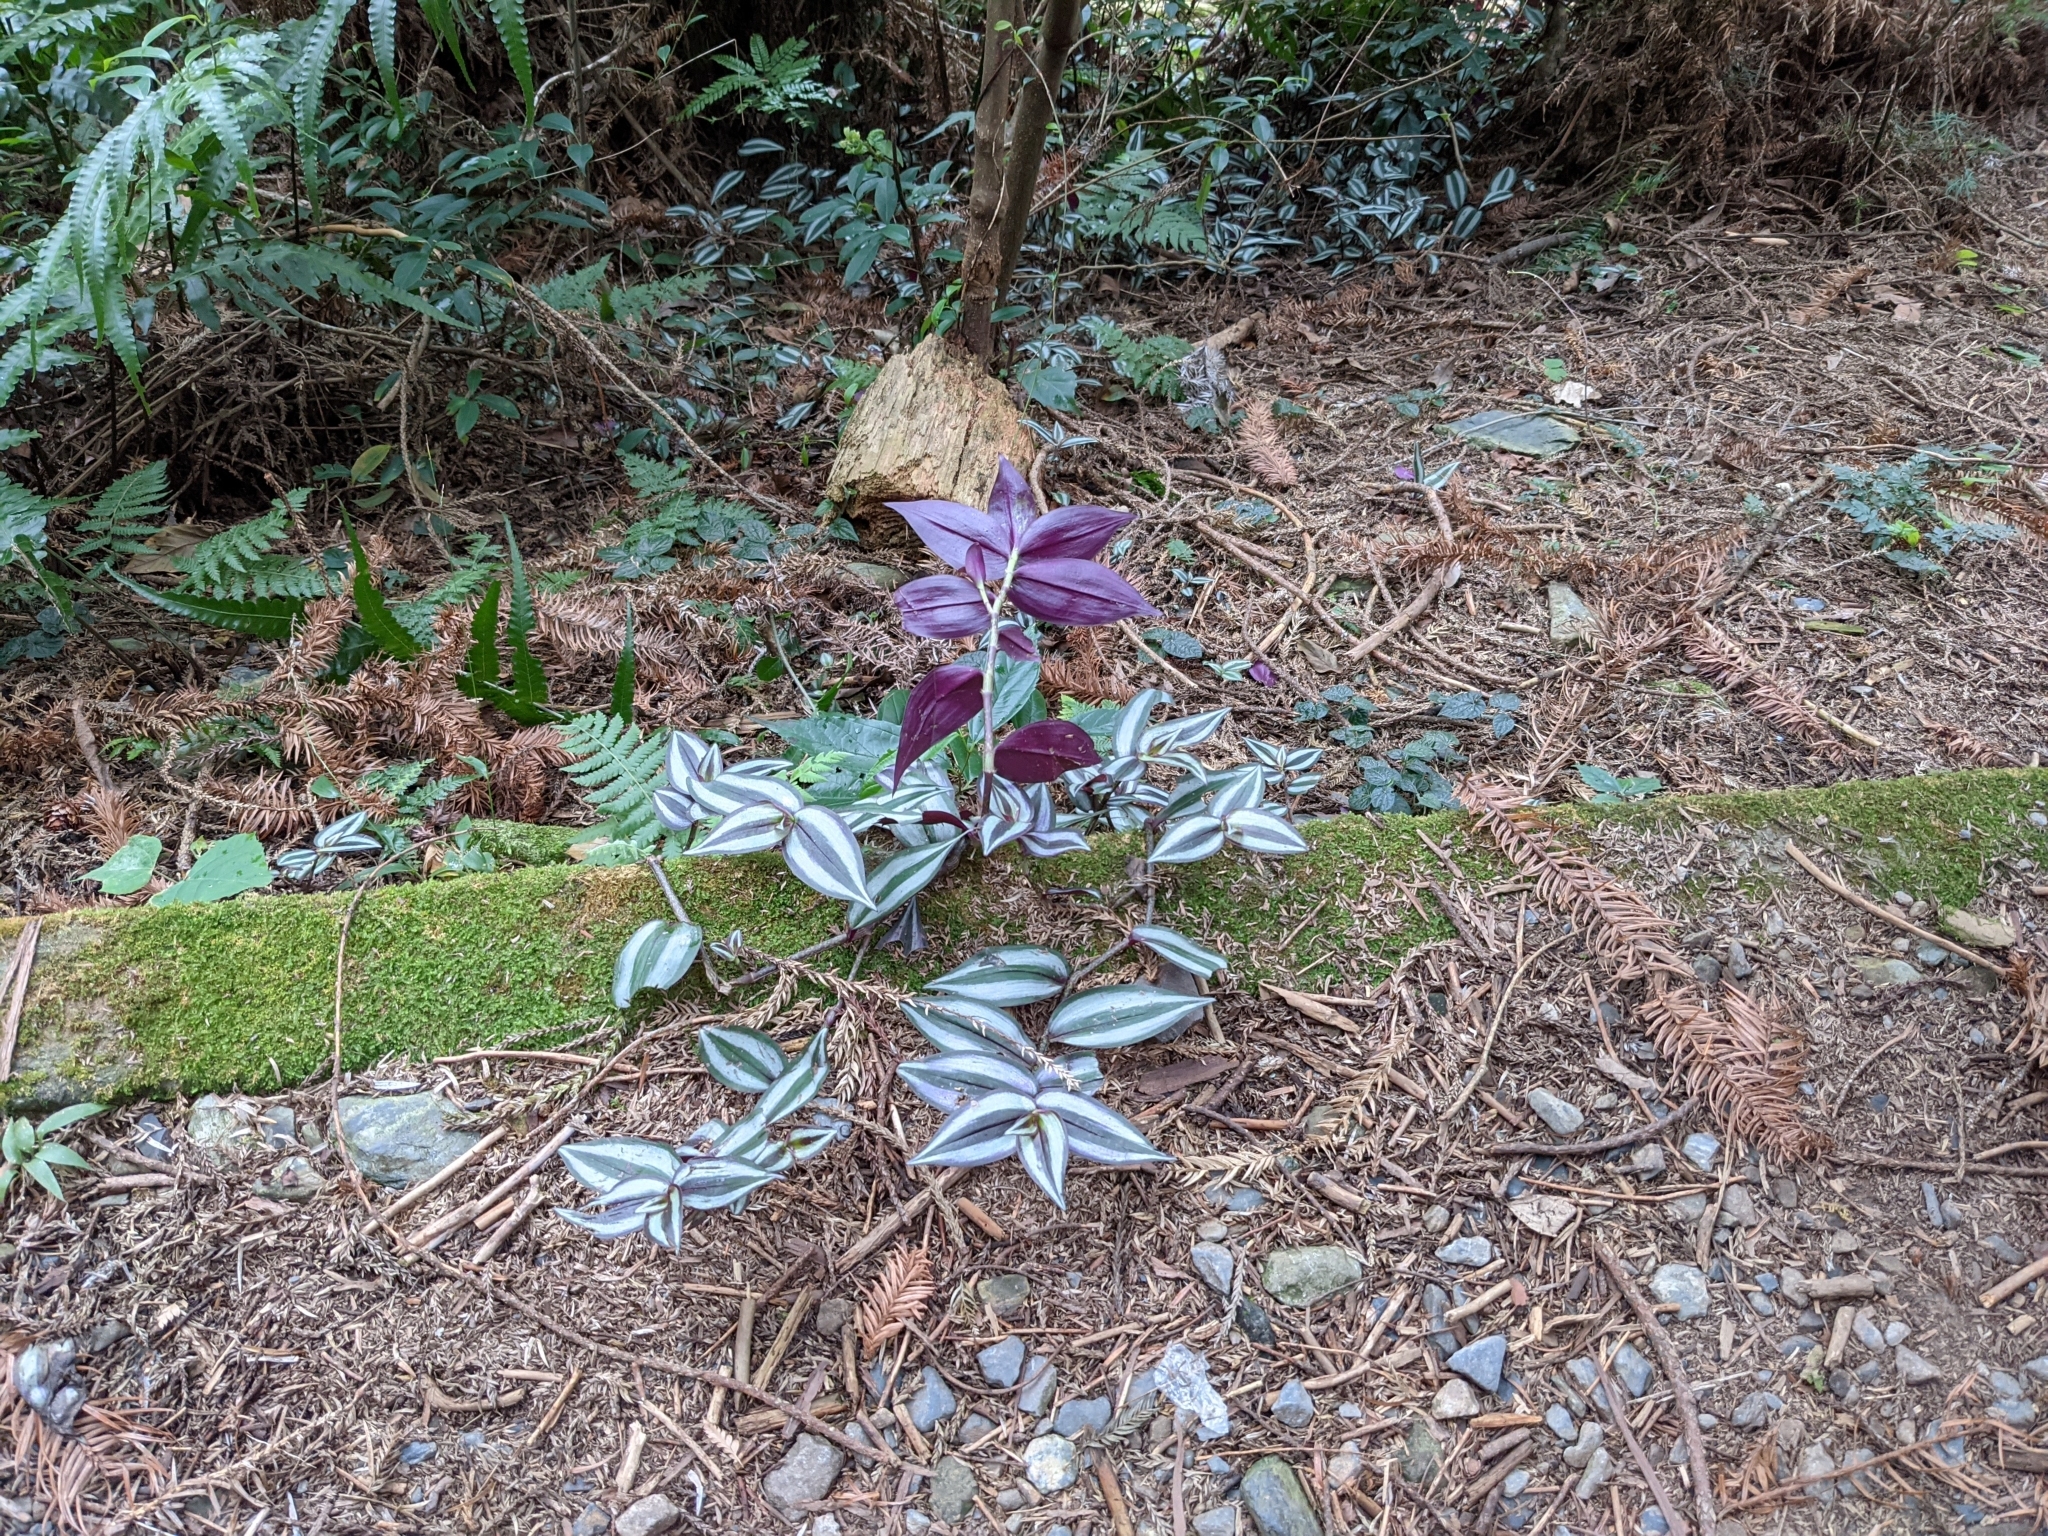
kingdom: Plantae
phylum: Tracheophyta
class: Liliopsida
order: Commelinales
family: Commelinaceae
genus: Tradescantia
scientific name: Tradescantia zebrina
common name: Inchplant
